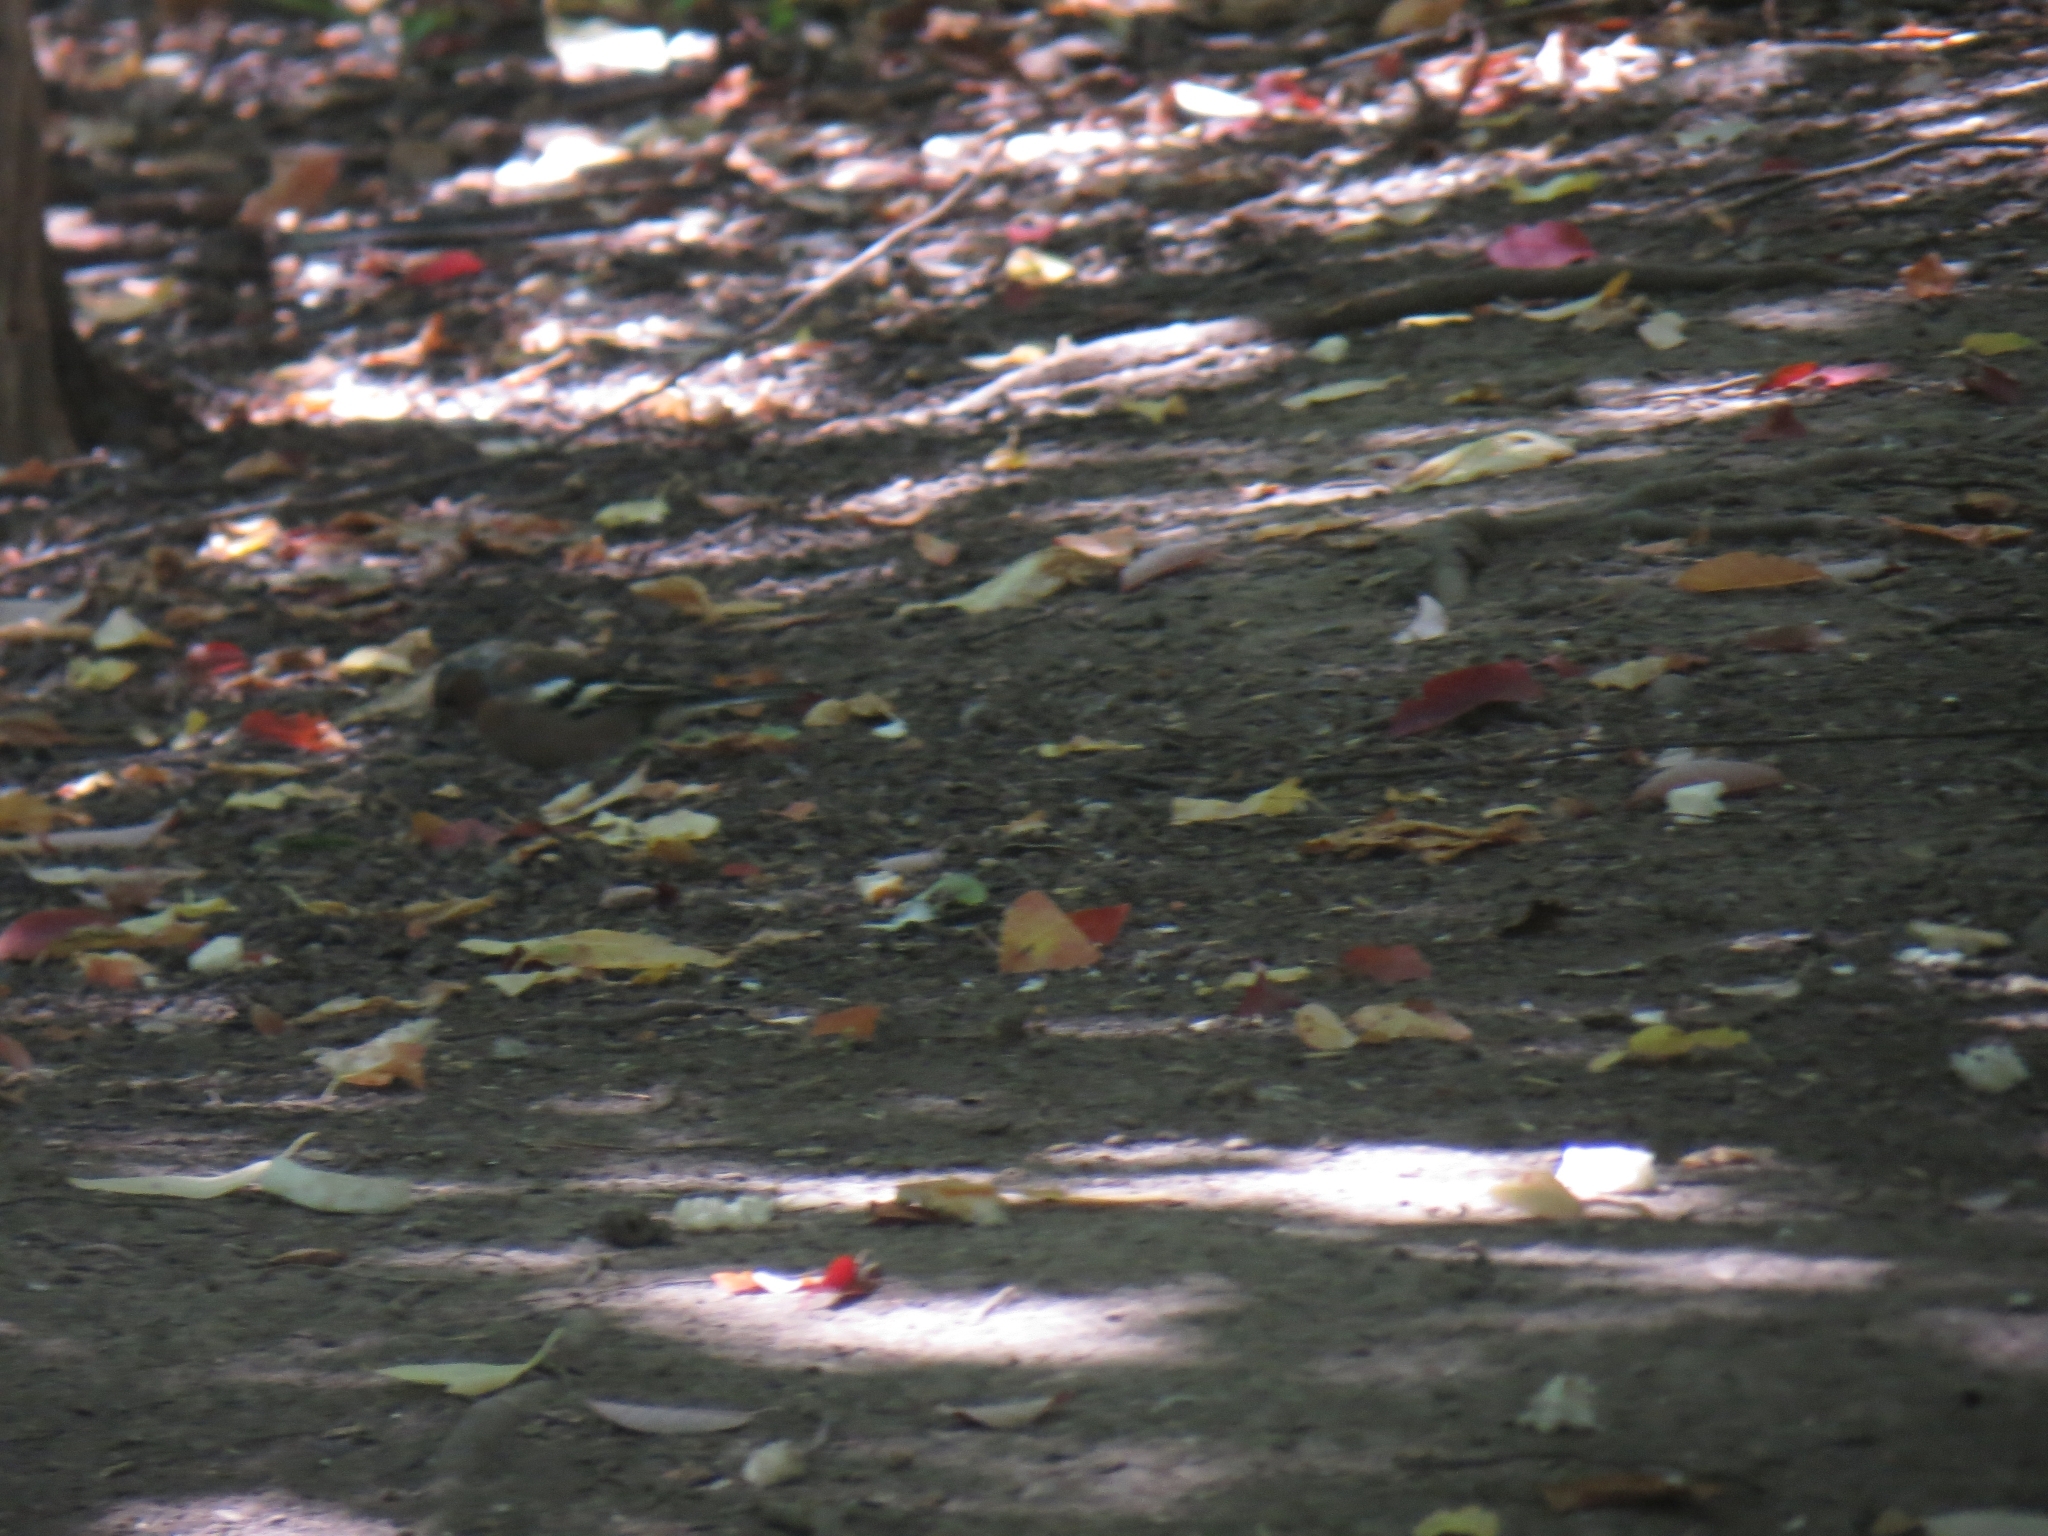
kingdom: Animalia
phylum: Chordata
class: Aves
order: Passeriformes
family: Fringillidae
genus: Fringilla
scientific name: Fringilla coelebs
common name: Common chaffinch
